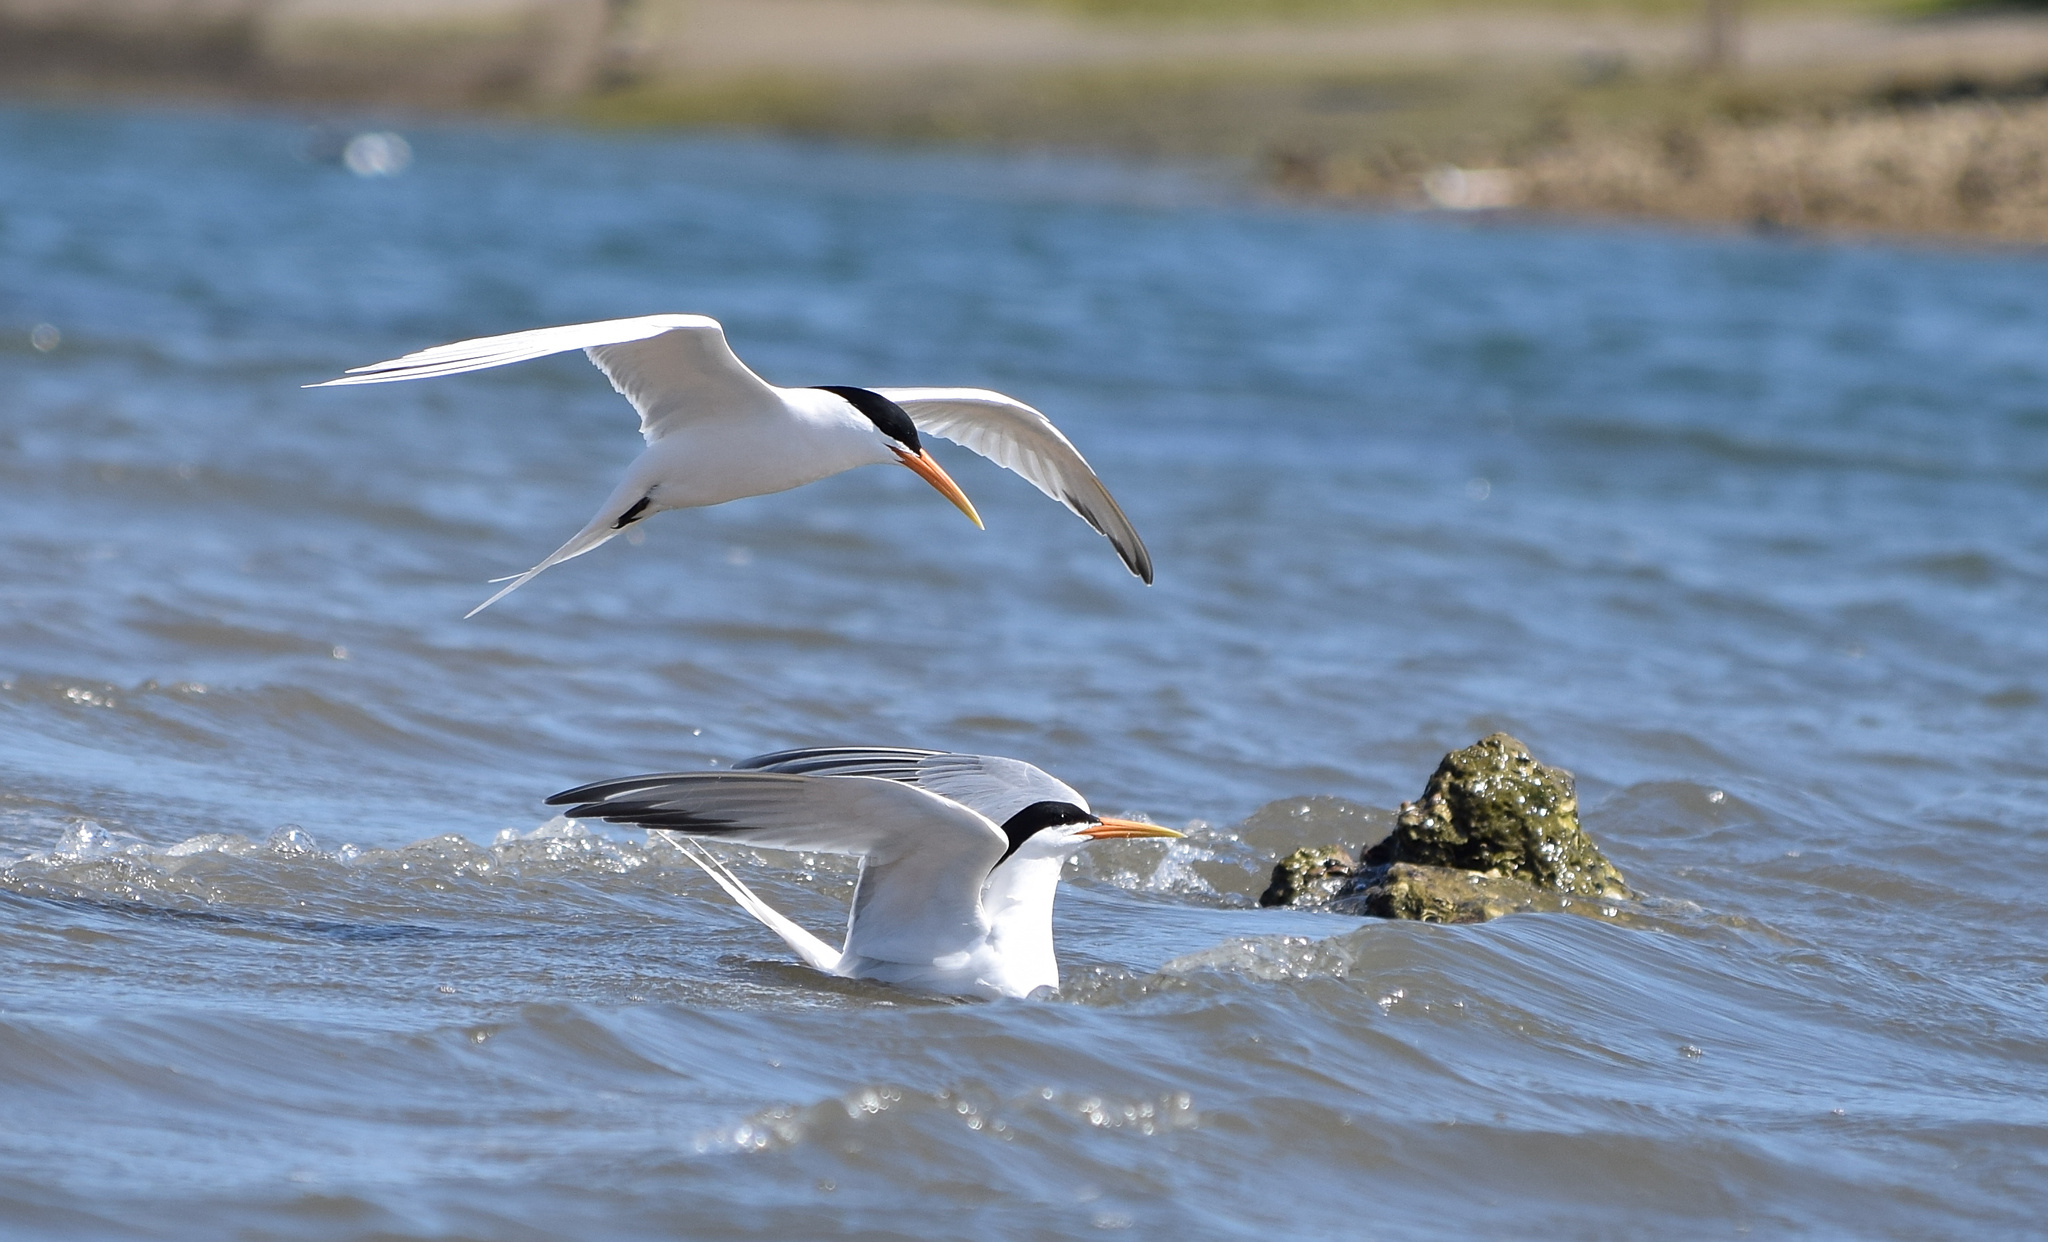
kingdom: Animalia
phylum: Chordata
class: Aves
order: Charadriiformes
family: Laridae
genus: Thalasseus
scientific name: Thalasseus elegans
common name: Elegant tern
